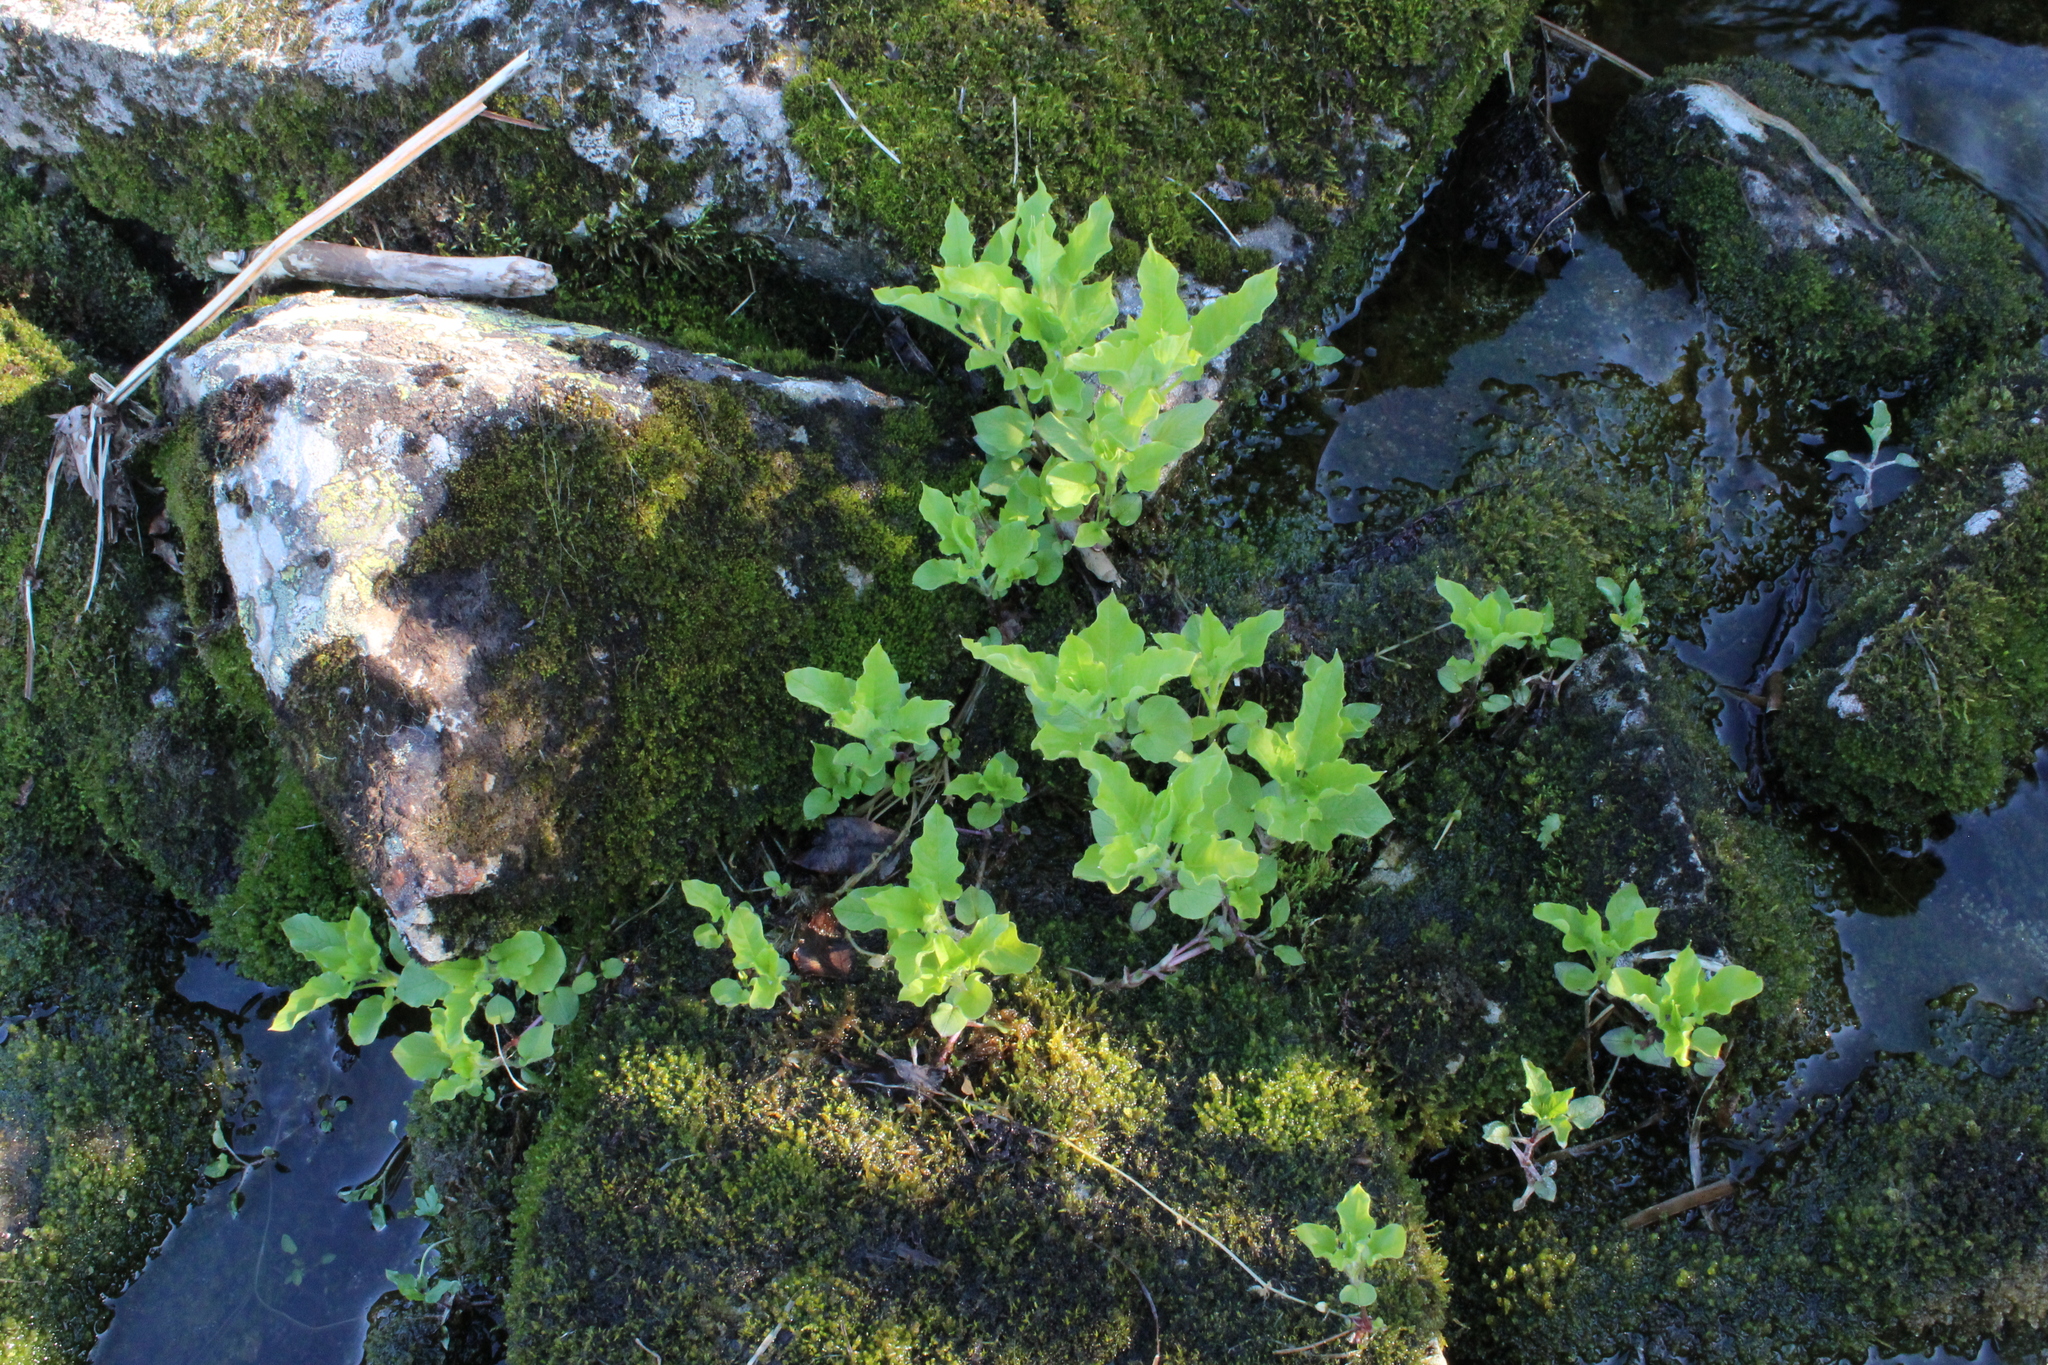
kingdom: Plantae
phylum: Tracheophyta
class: Magnoliopsida
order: Caryophyllales
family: Caryophyllaceae
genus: Stellaria
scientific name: Stellaria nemorum
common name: Wood stitchwort
